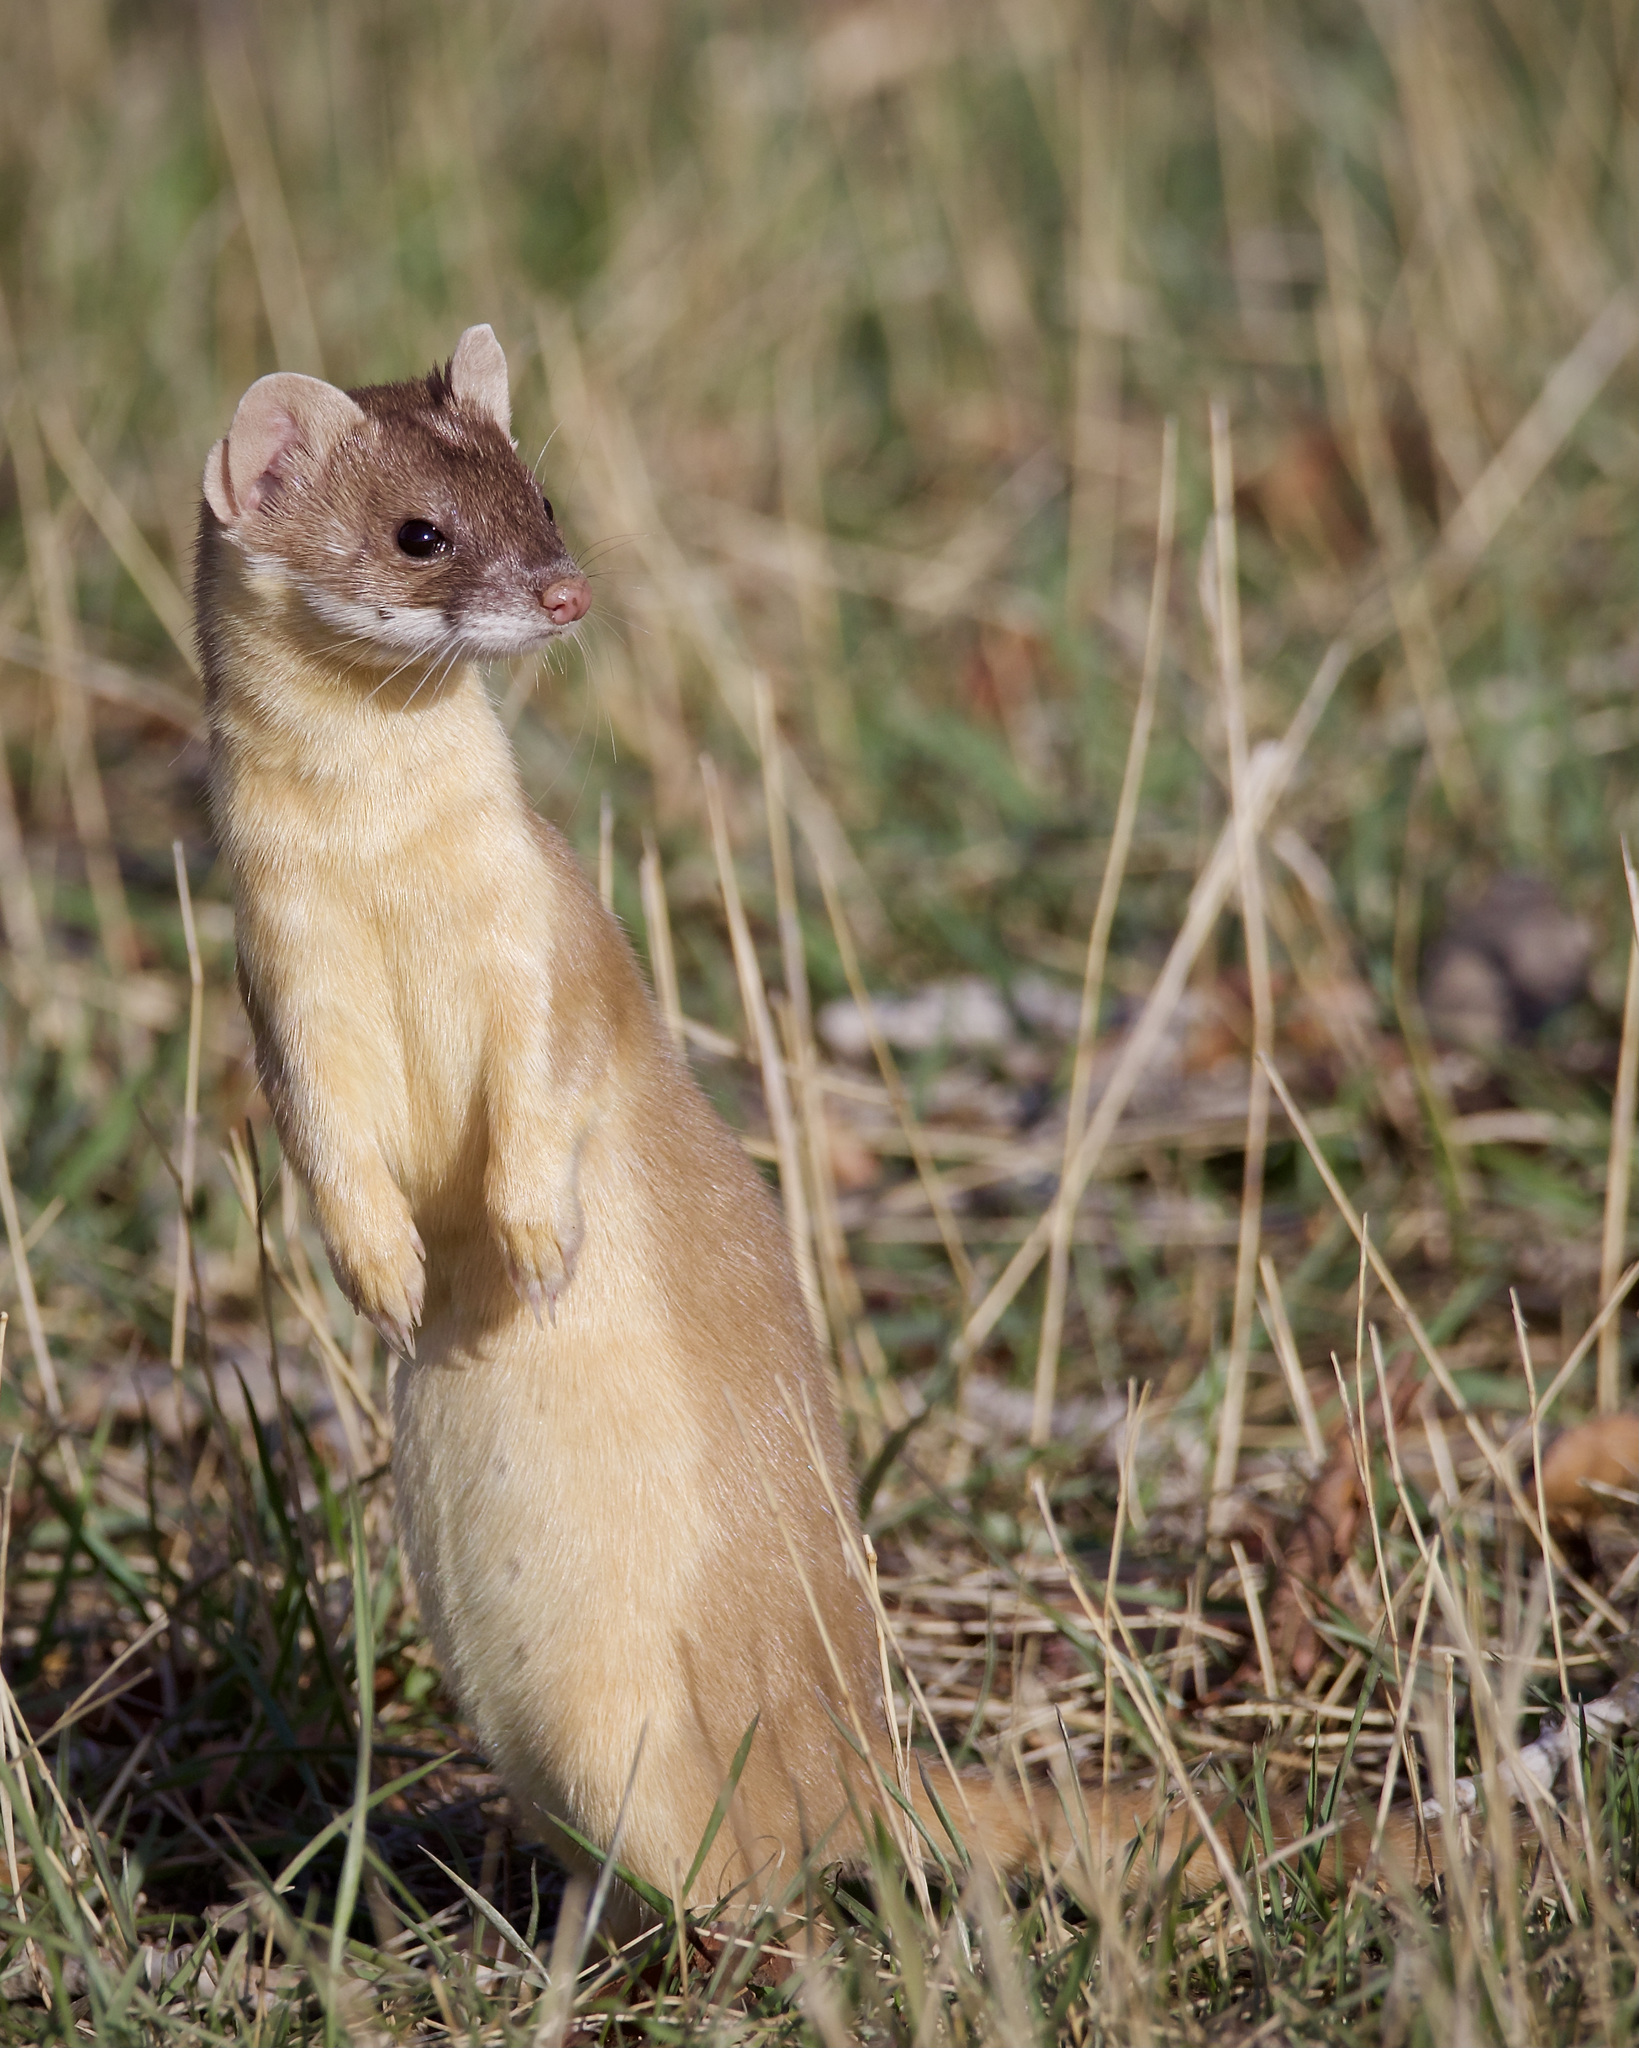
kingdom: Animalia
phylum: Chordata
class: Mammalia
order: Carnivora
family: Mustelidae
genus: Mustela
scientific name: Mustela
